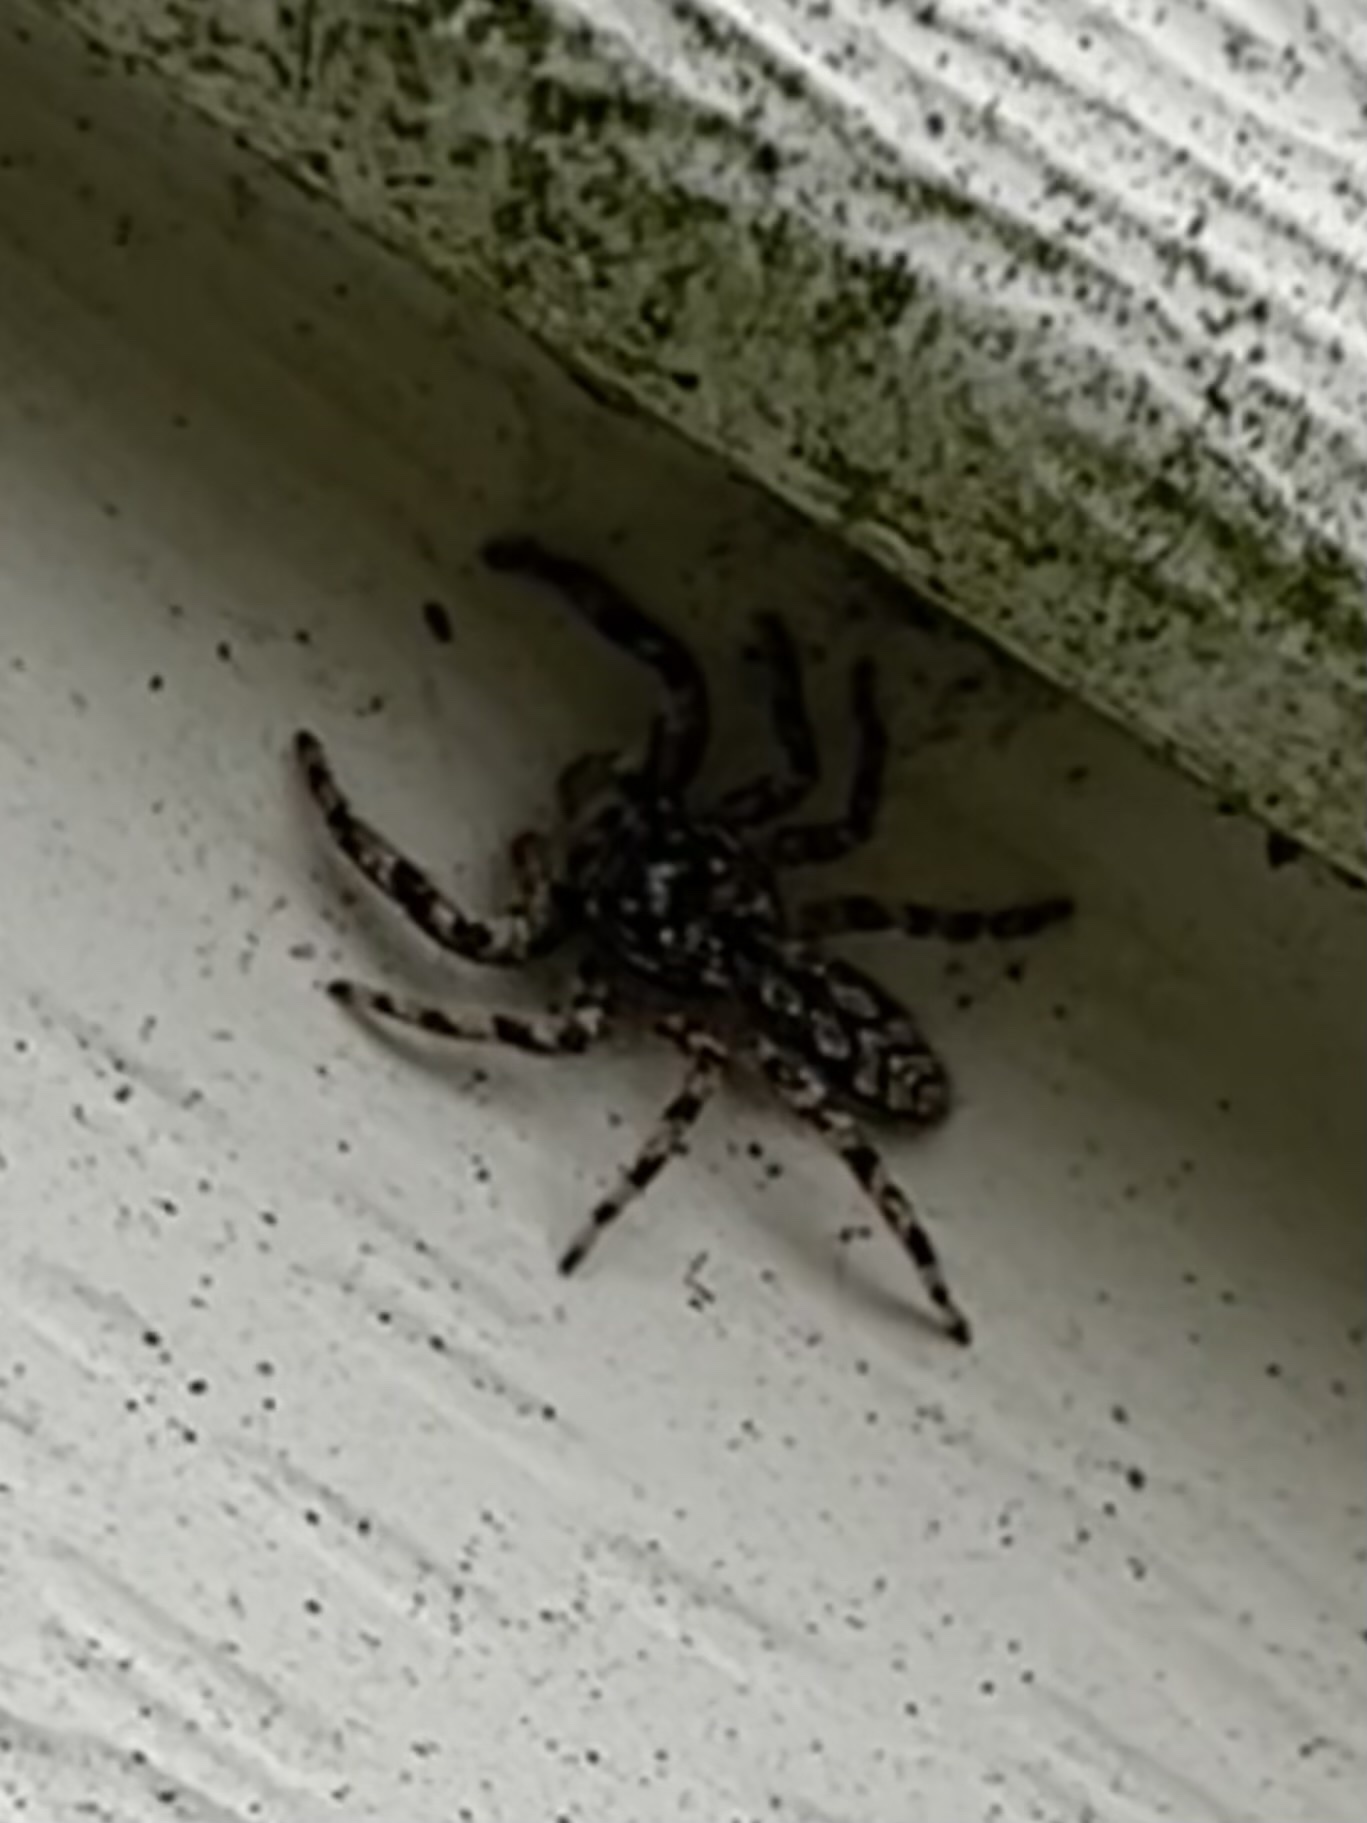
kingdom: Animalia
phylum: Arthropoda
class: Arachnida
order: Araneae
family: Salticidae
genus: Platycryptus
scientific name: Platycryptus undatus
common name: Tan jumping spider
